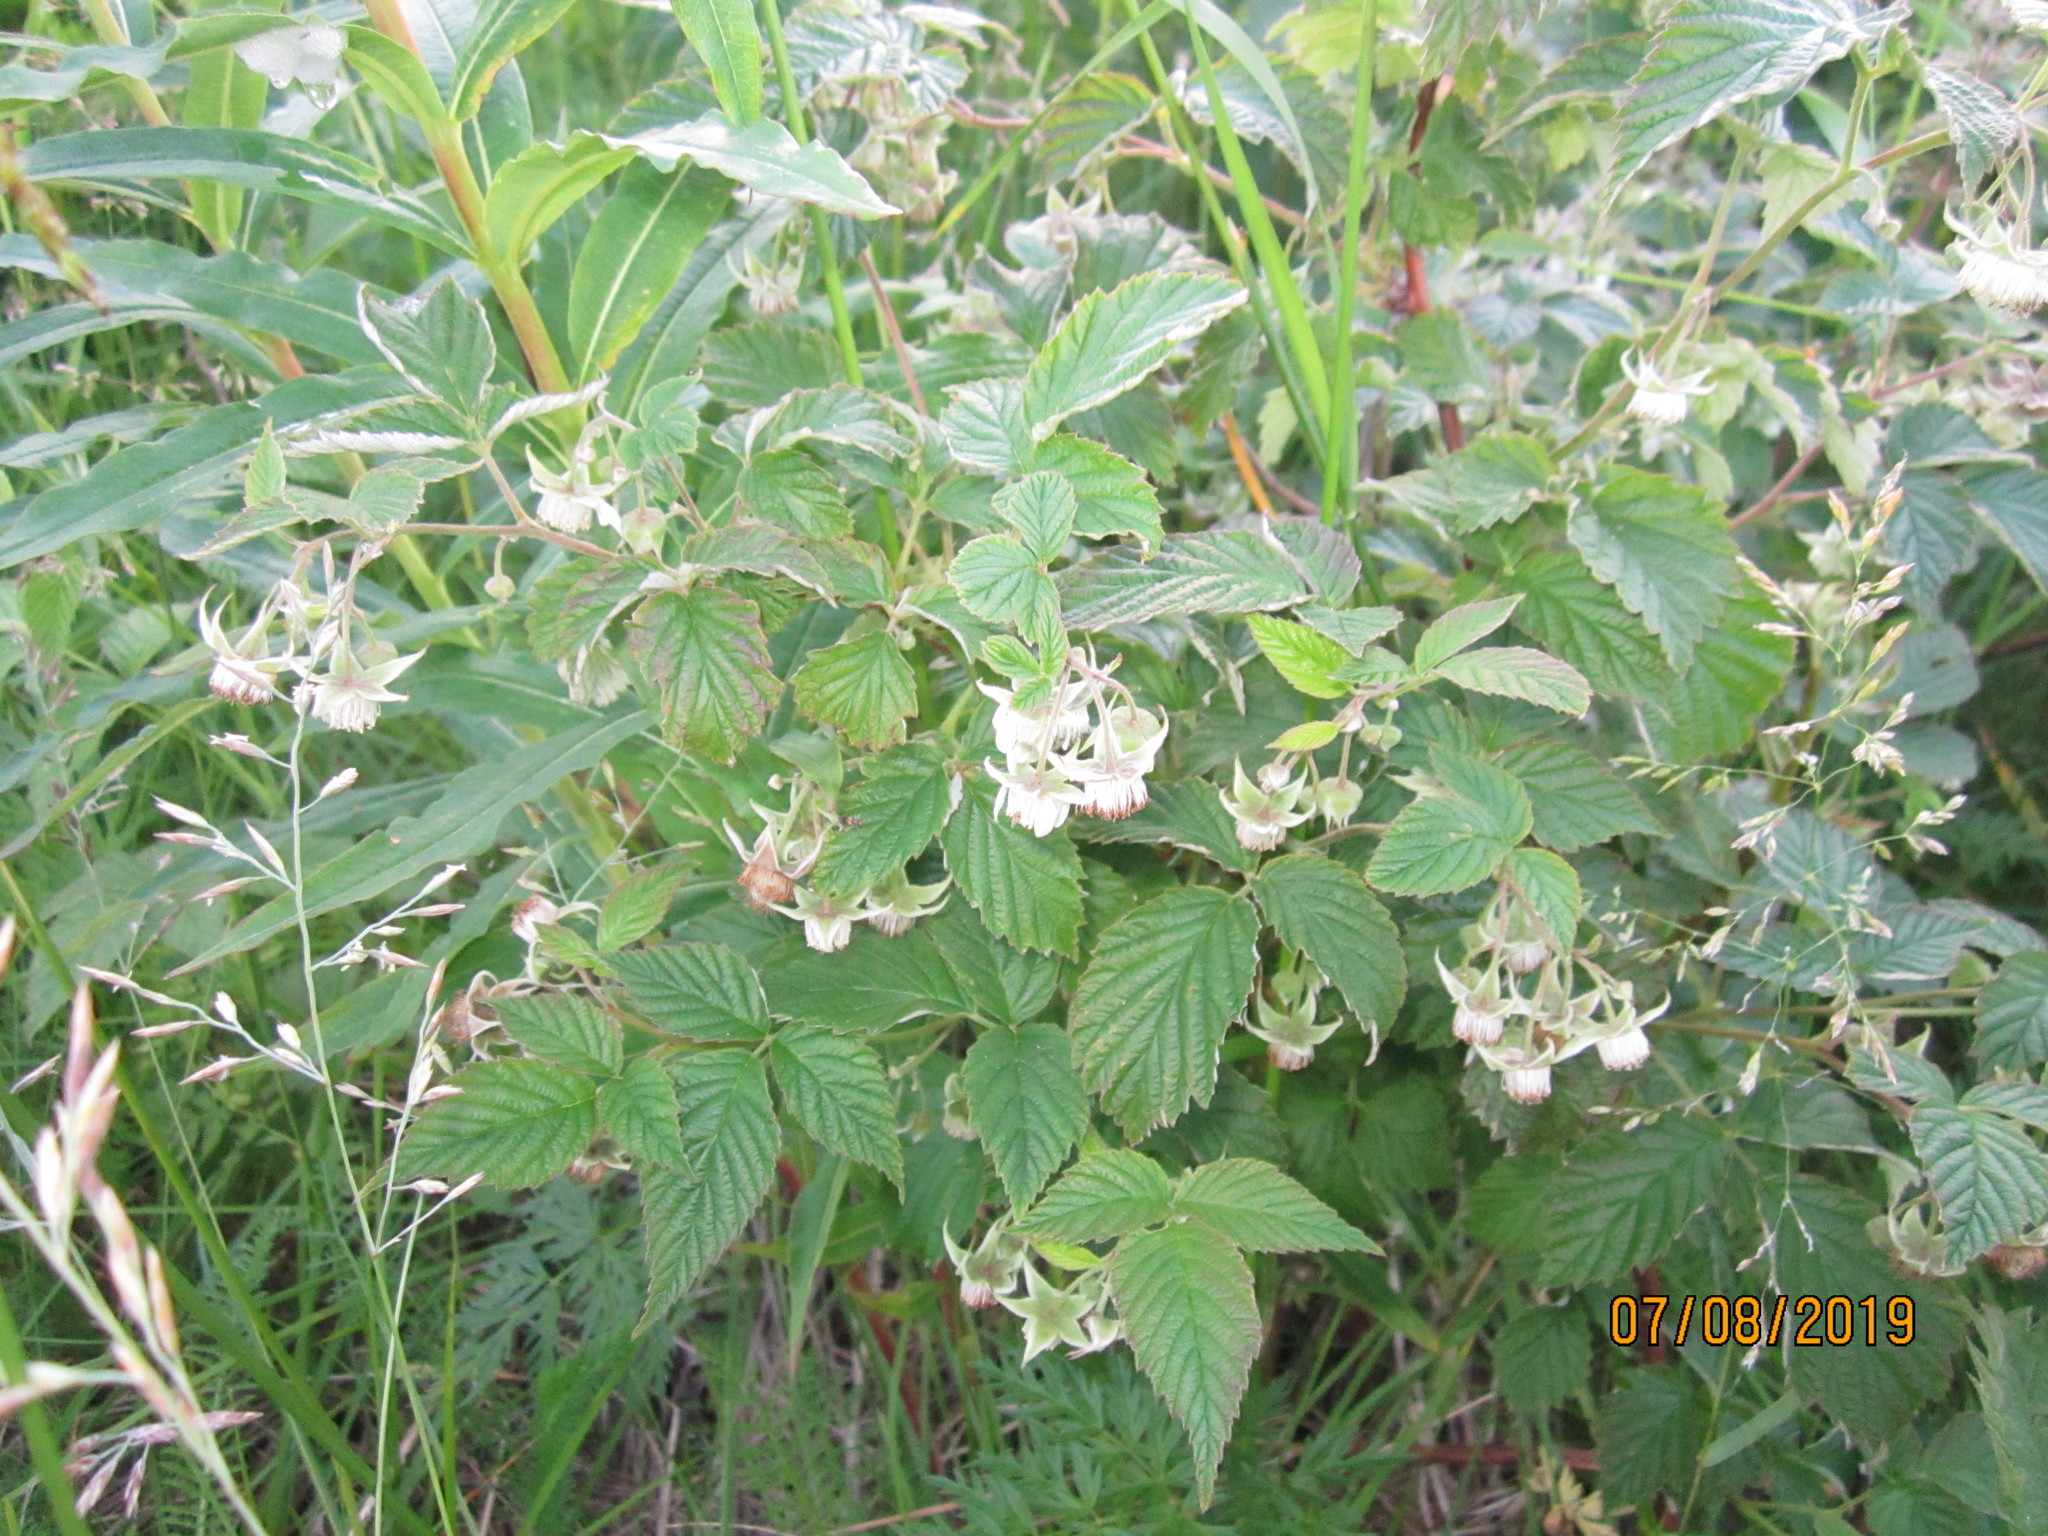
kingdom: Plantae
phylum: Tracheophyta
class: Magnoliopsida
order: Rosales
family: Rosaceae
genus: Rubus
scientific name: Rubus idaeus
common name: Raspberry
